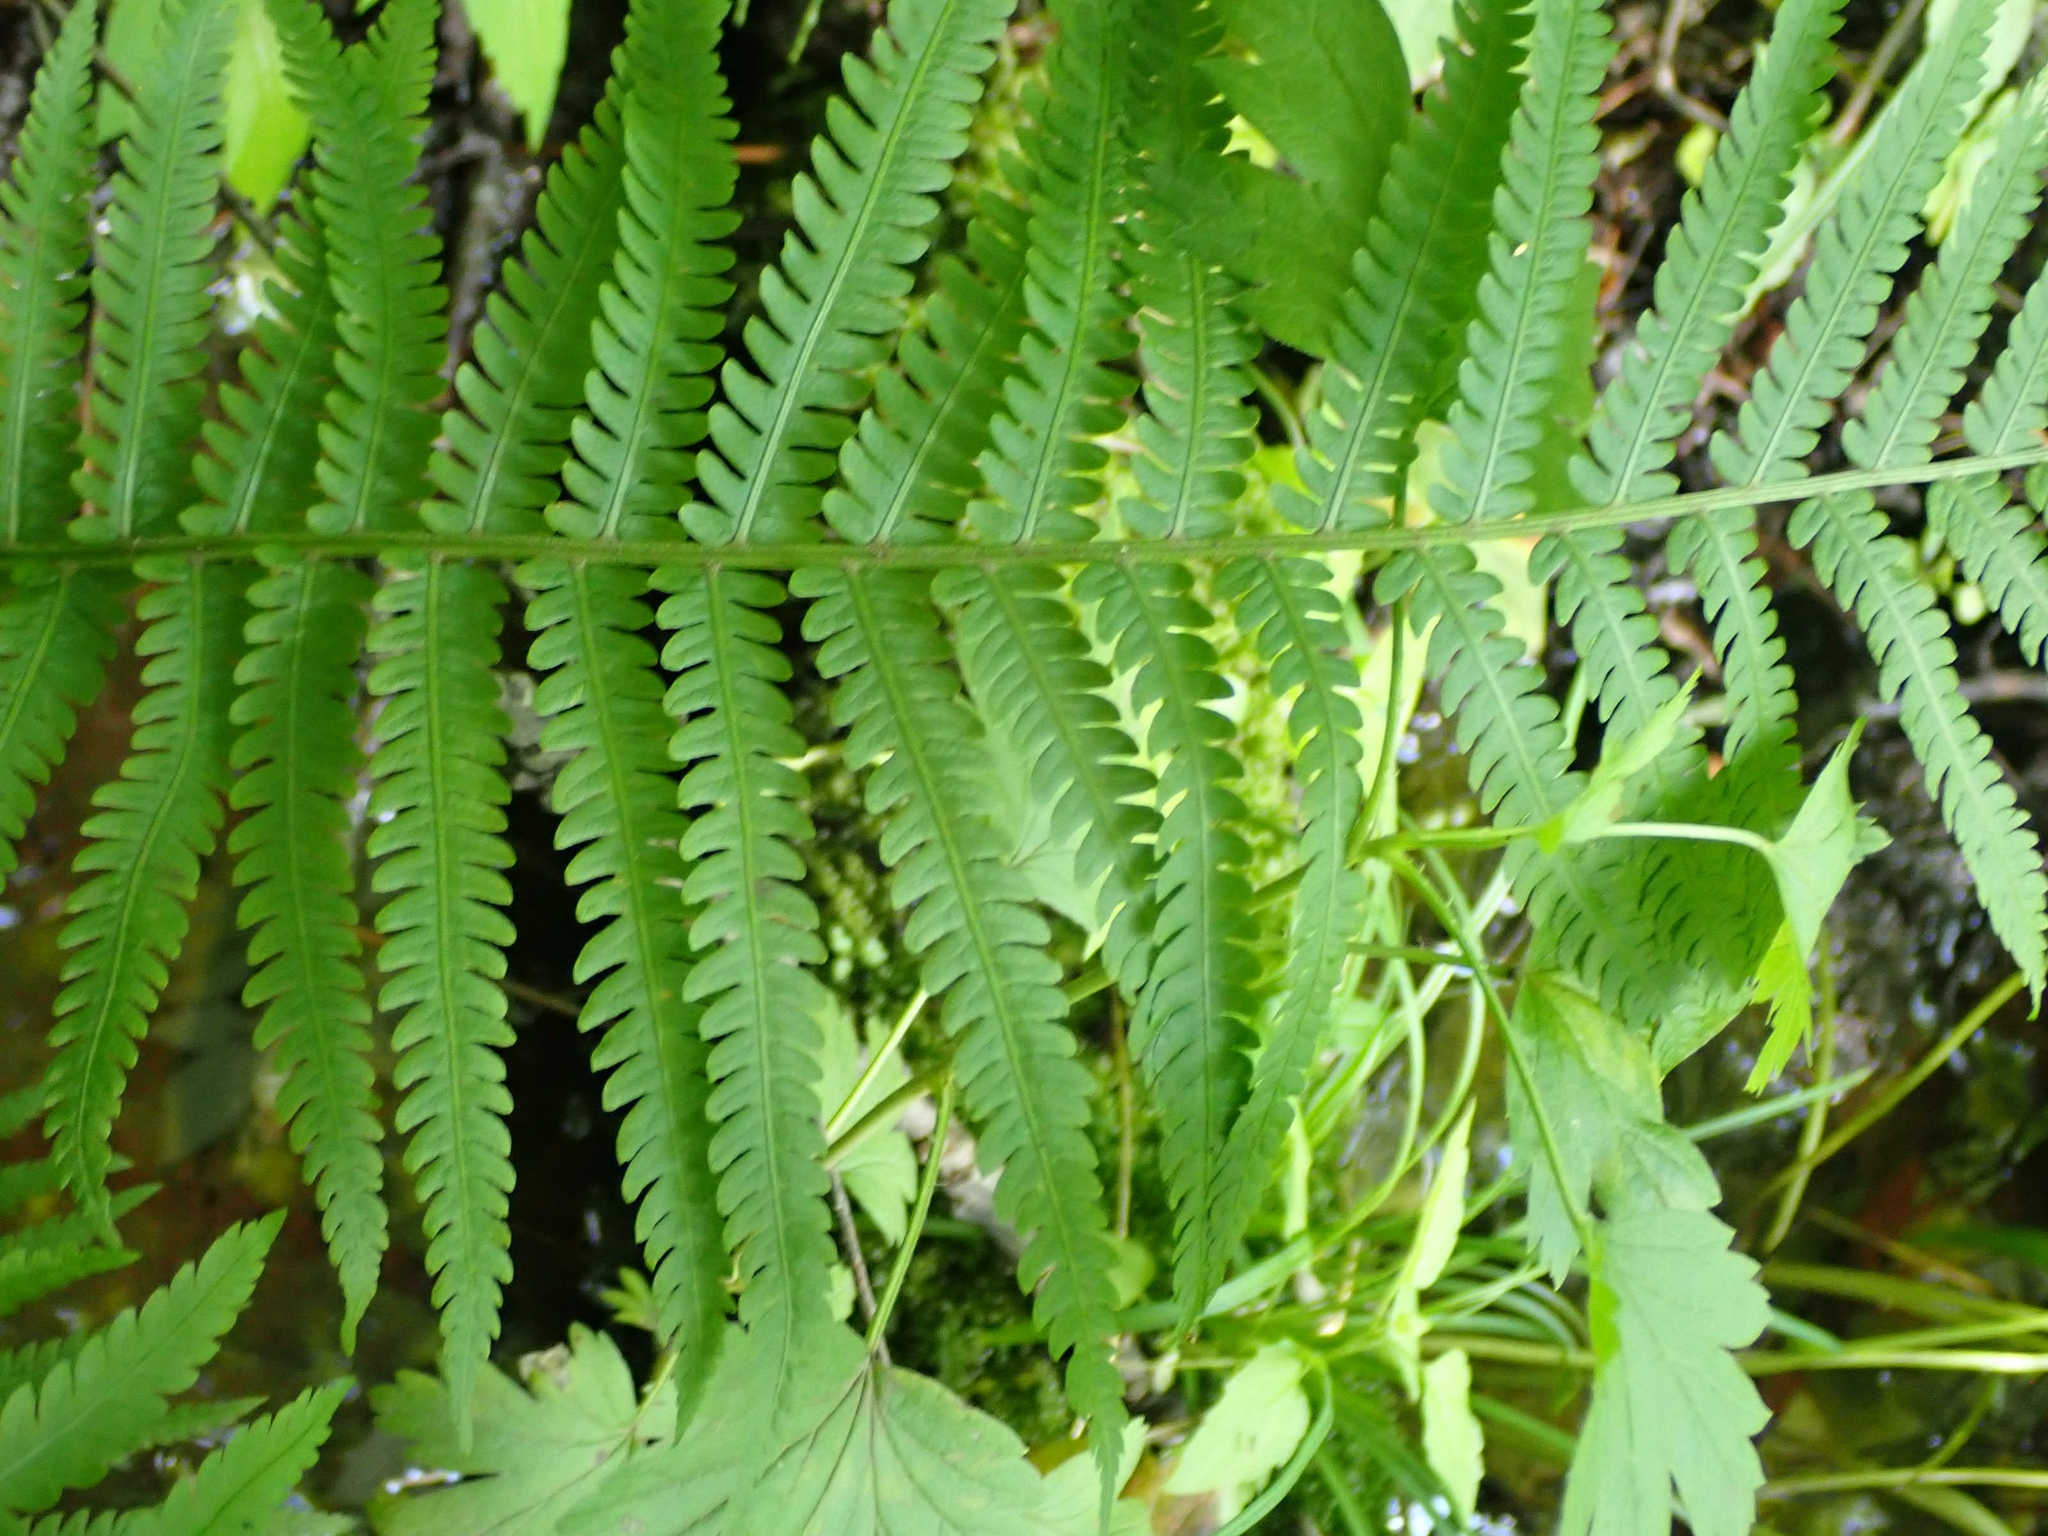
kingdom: Plantae
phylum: Tracheophyta
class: Polypodiopsida
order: Polypodiales
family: Onocleaceae
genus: Matteuccia
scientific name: Matteuccia struthiopteris
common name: Ostrich fern
